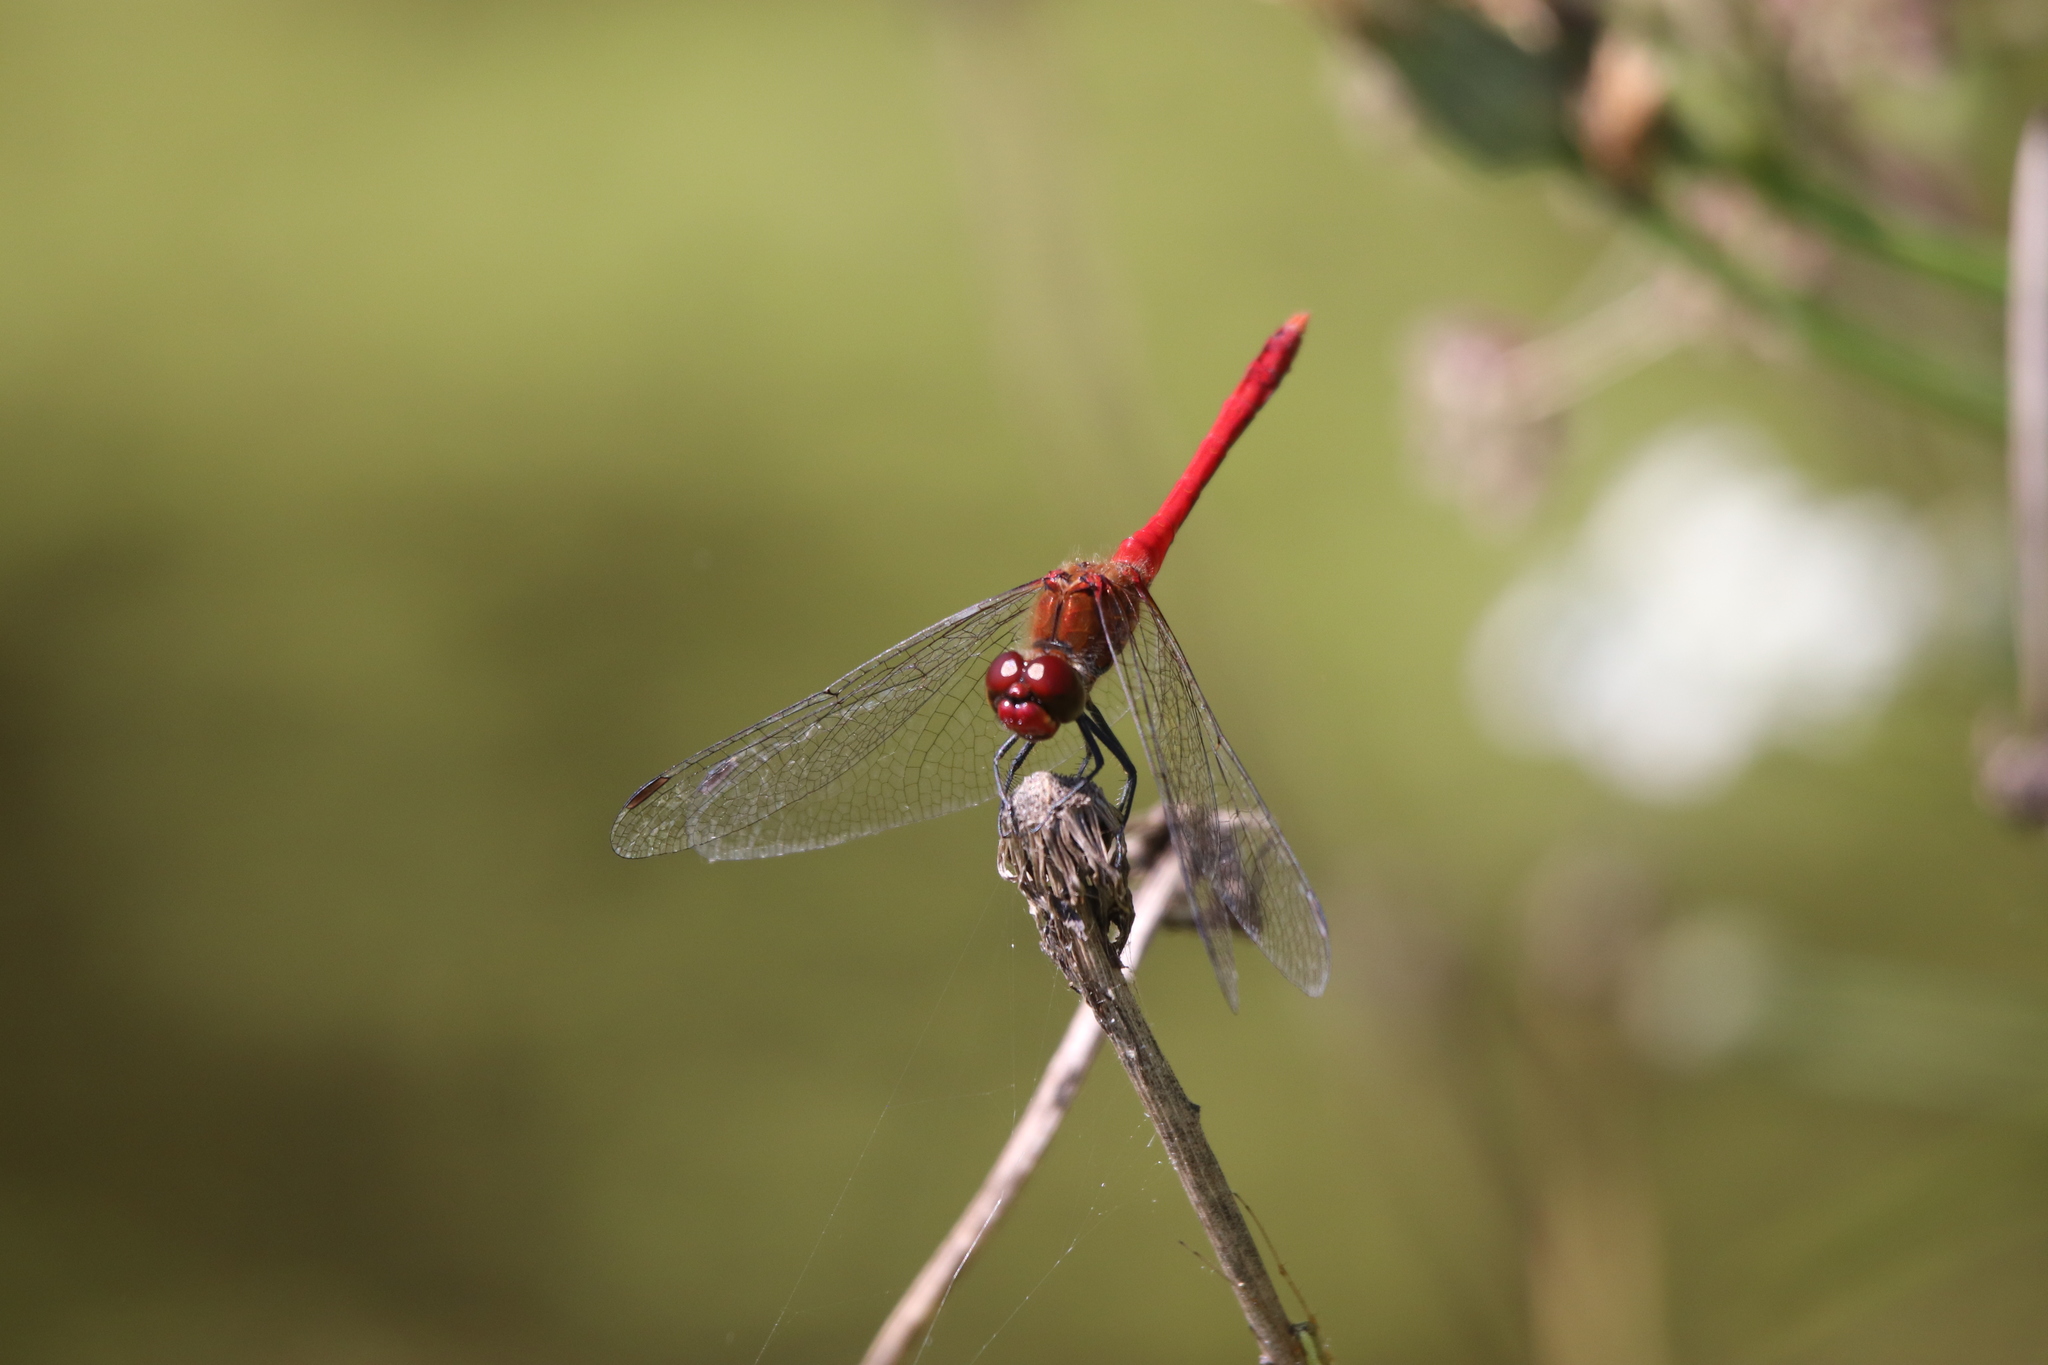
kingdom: Animalia
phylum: Arthropoda
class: Insecta
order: Odonata
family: Libellulidae
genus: Sympetrum
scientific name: Sympetrum sanguineum
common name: Ruddy darter
